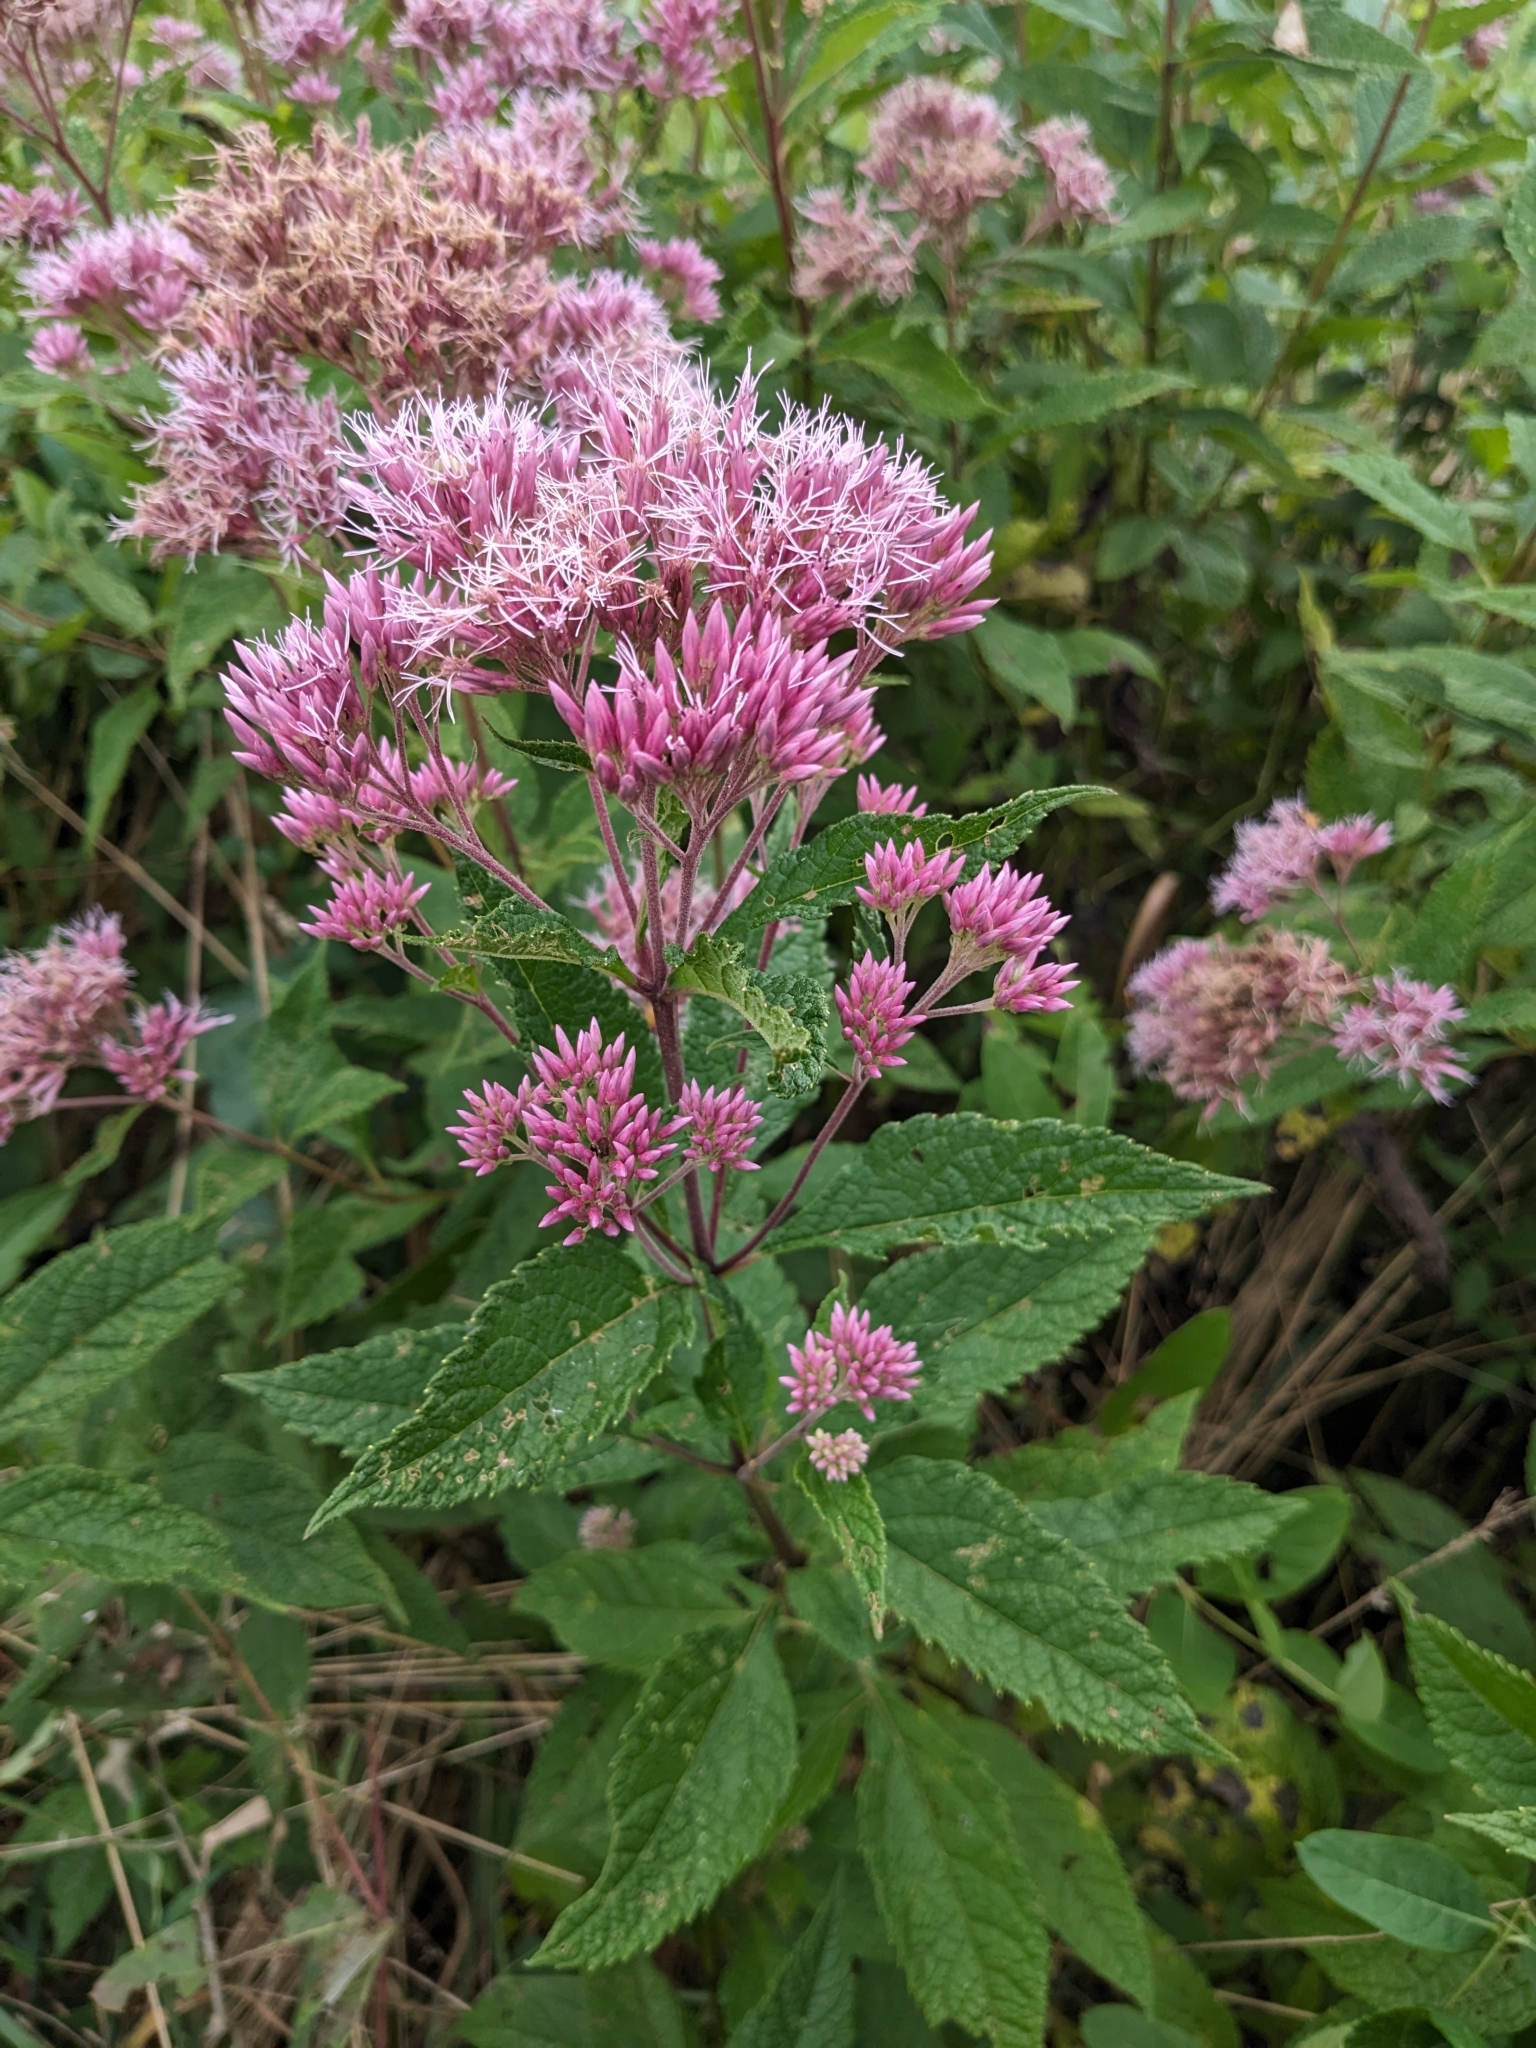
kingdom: Plantae
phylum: Tracheophyta
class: Magnoliopsida
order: Asterales
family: Asteraceae
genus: Eutrochium
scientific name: Eutrochium dubium
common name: Coastal plain joe pye weed
